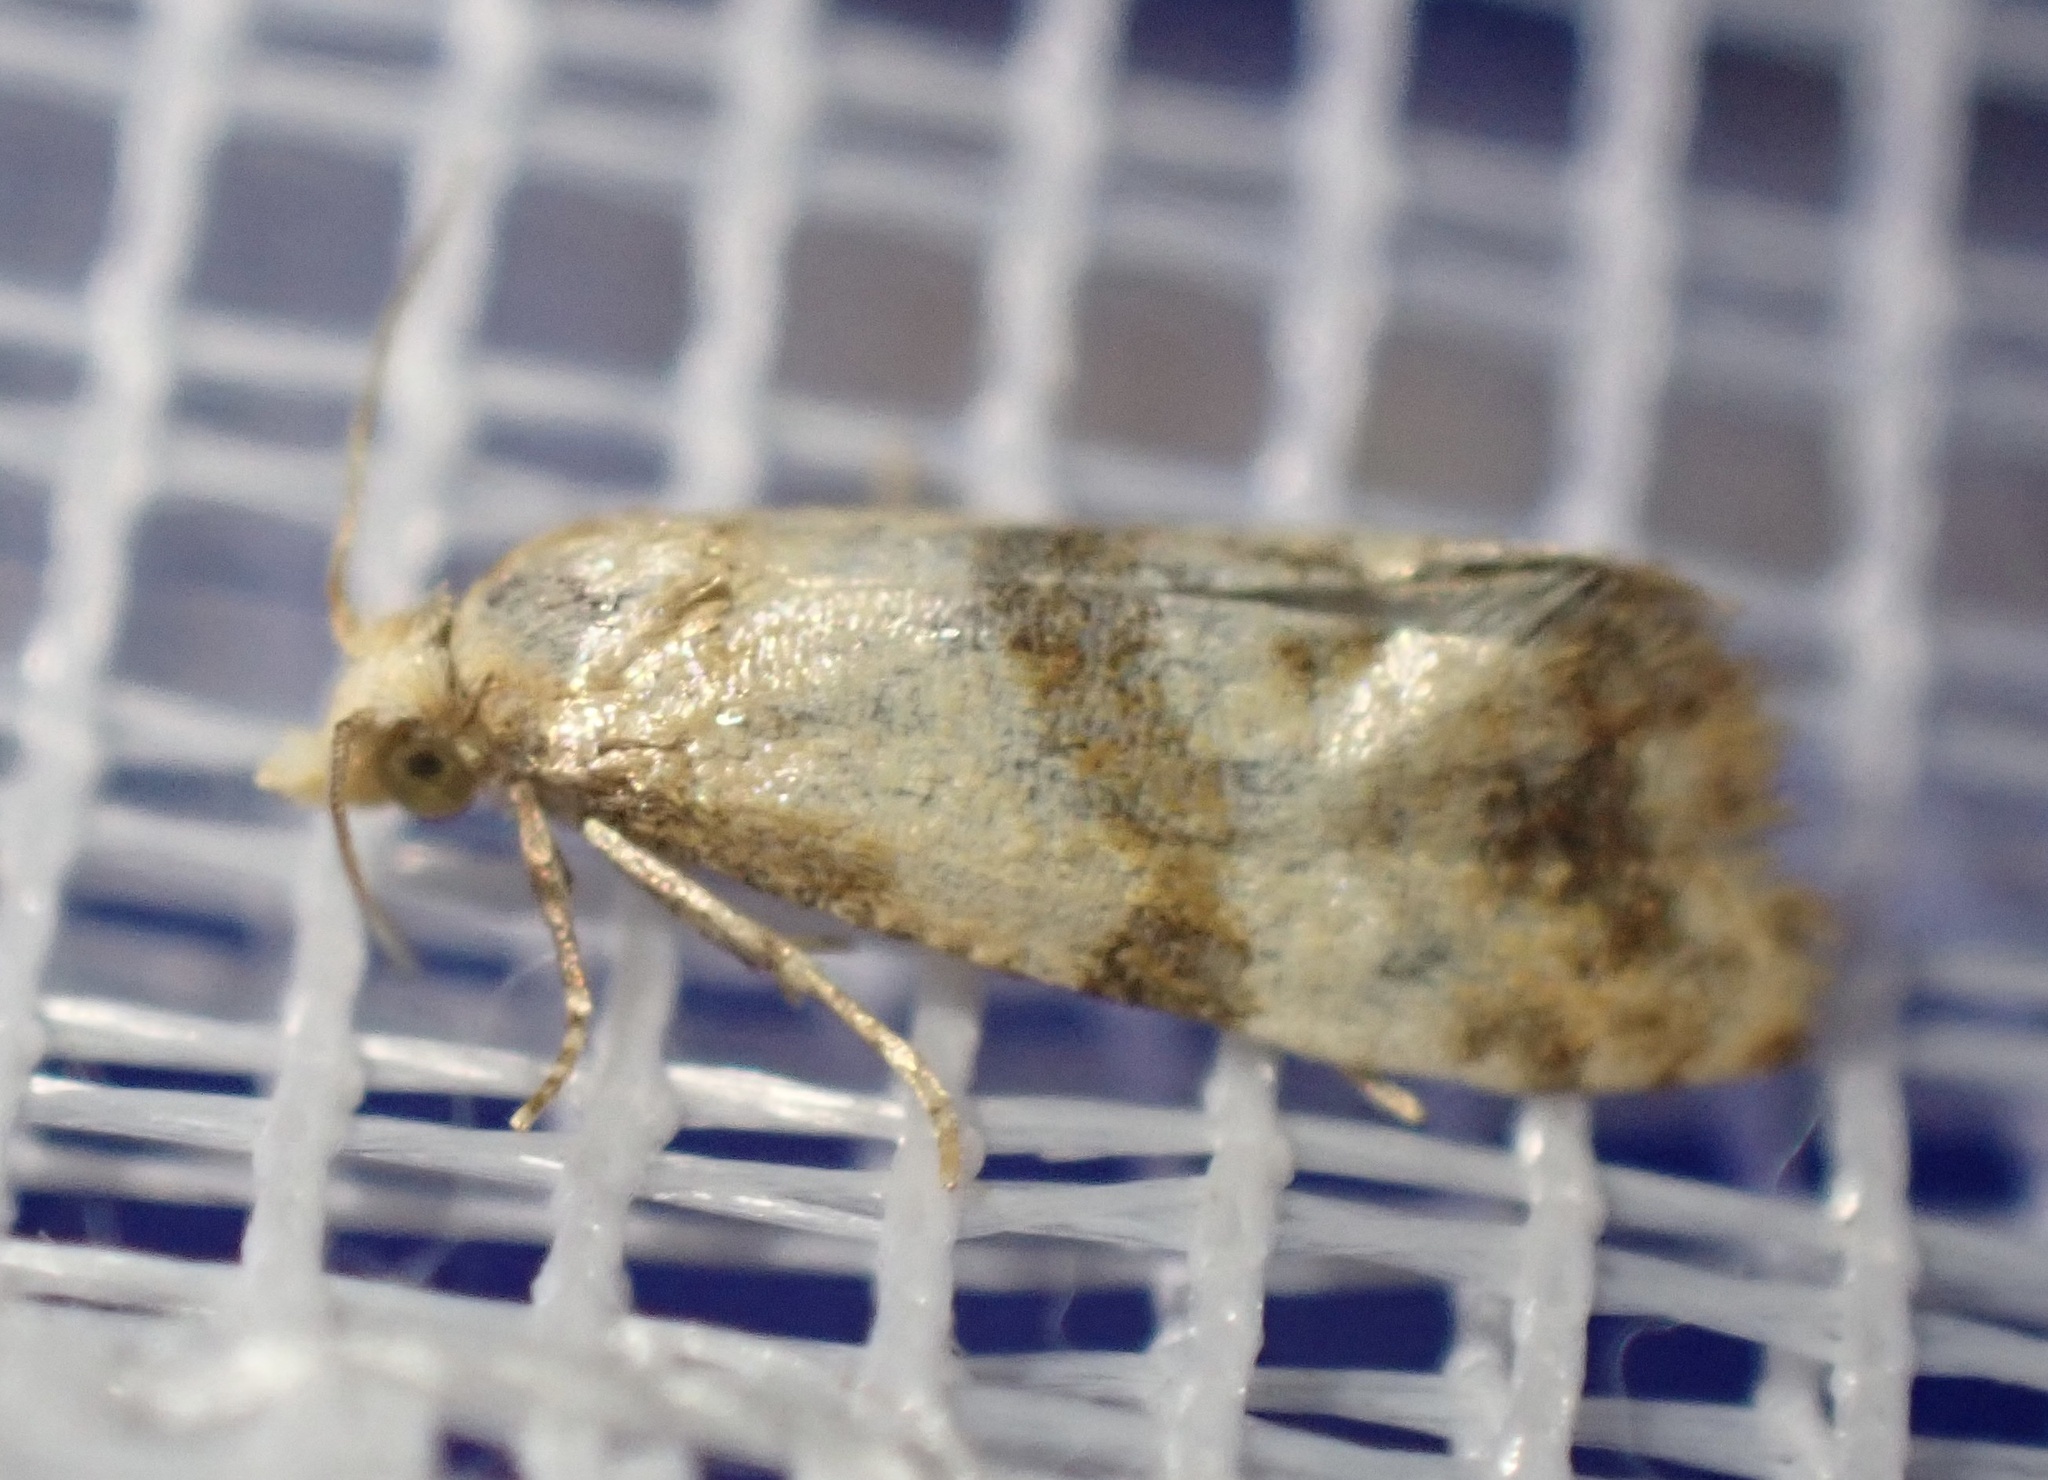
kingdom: Animalia
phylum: Arthropoda
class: Insecta
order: Lepidoptera
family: Tortricidae
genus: Phalonidia
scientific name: Phalonidia contractana
